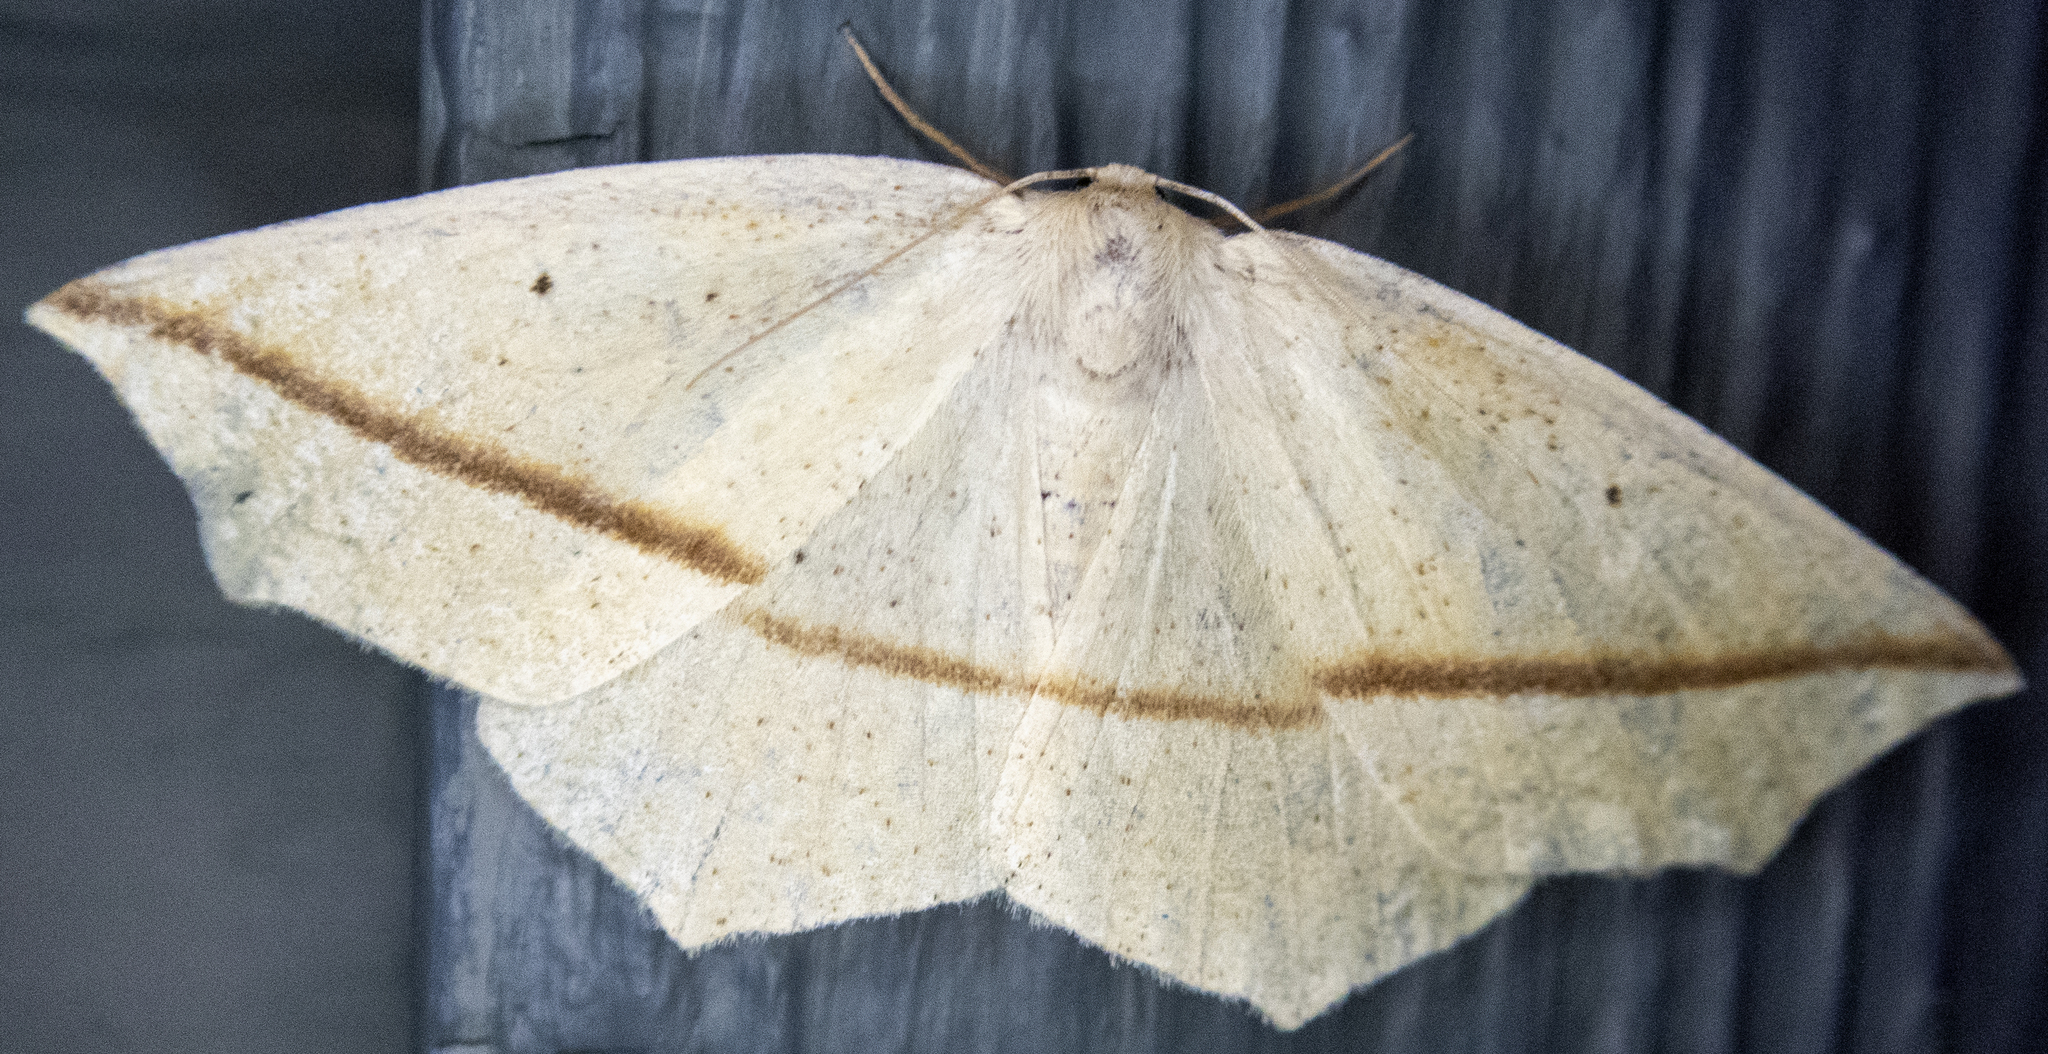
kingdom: Animalia
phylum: Arthropoda
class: Insecta
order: Lepidoptera
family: Geometridae
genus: Tetracis
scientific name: Tetracis crocallata
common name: Yellow slant-line
